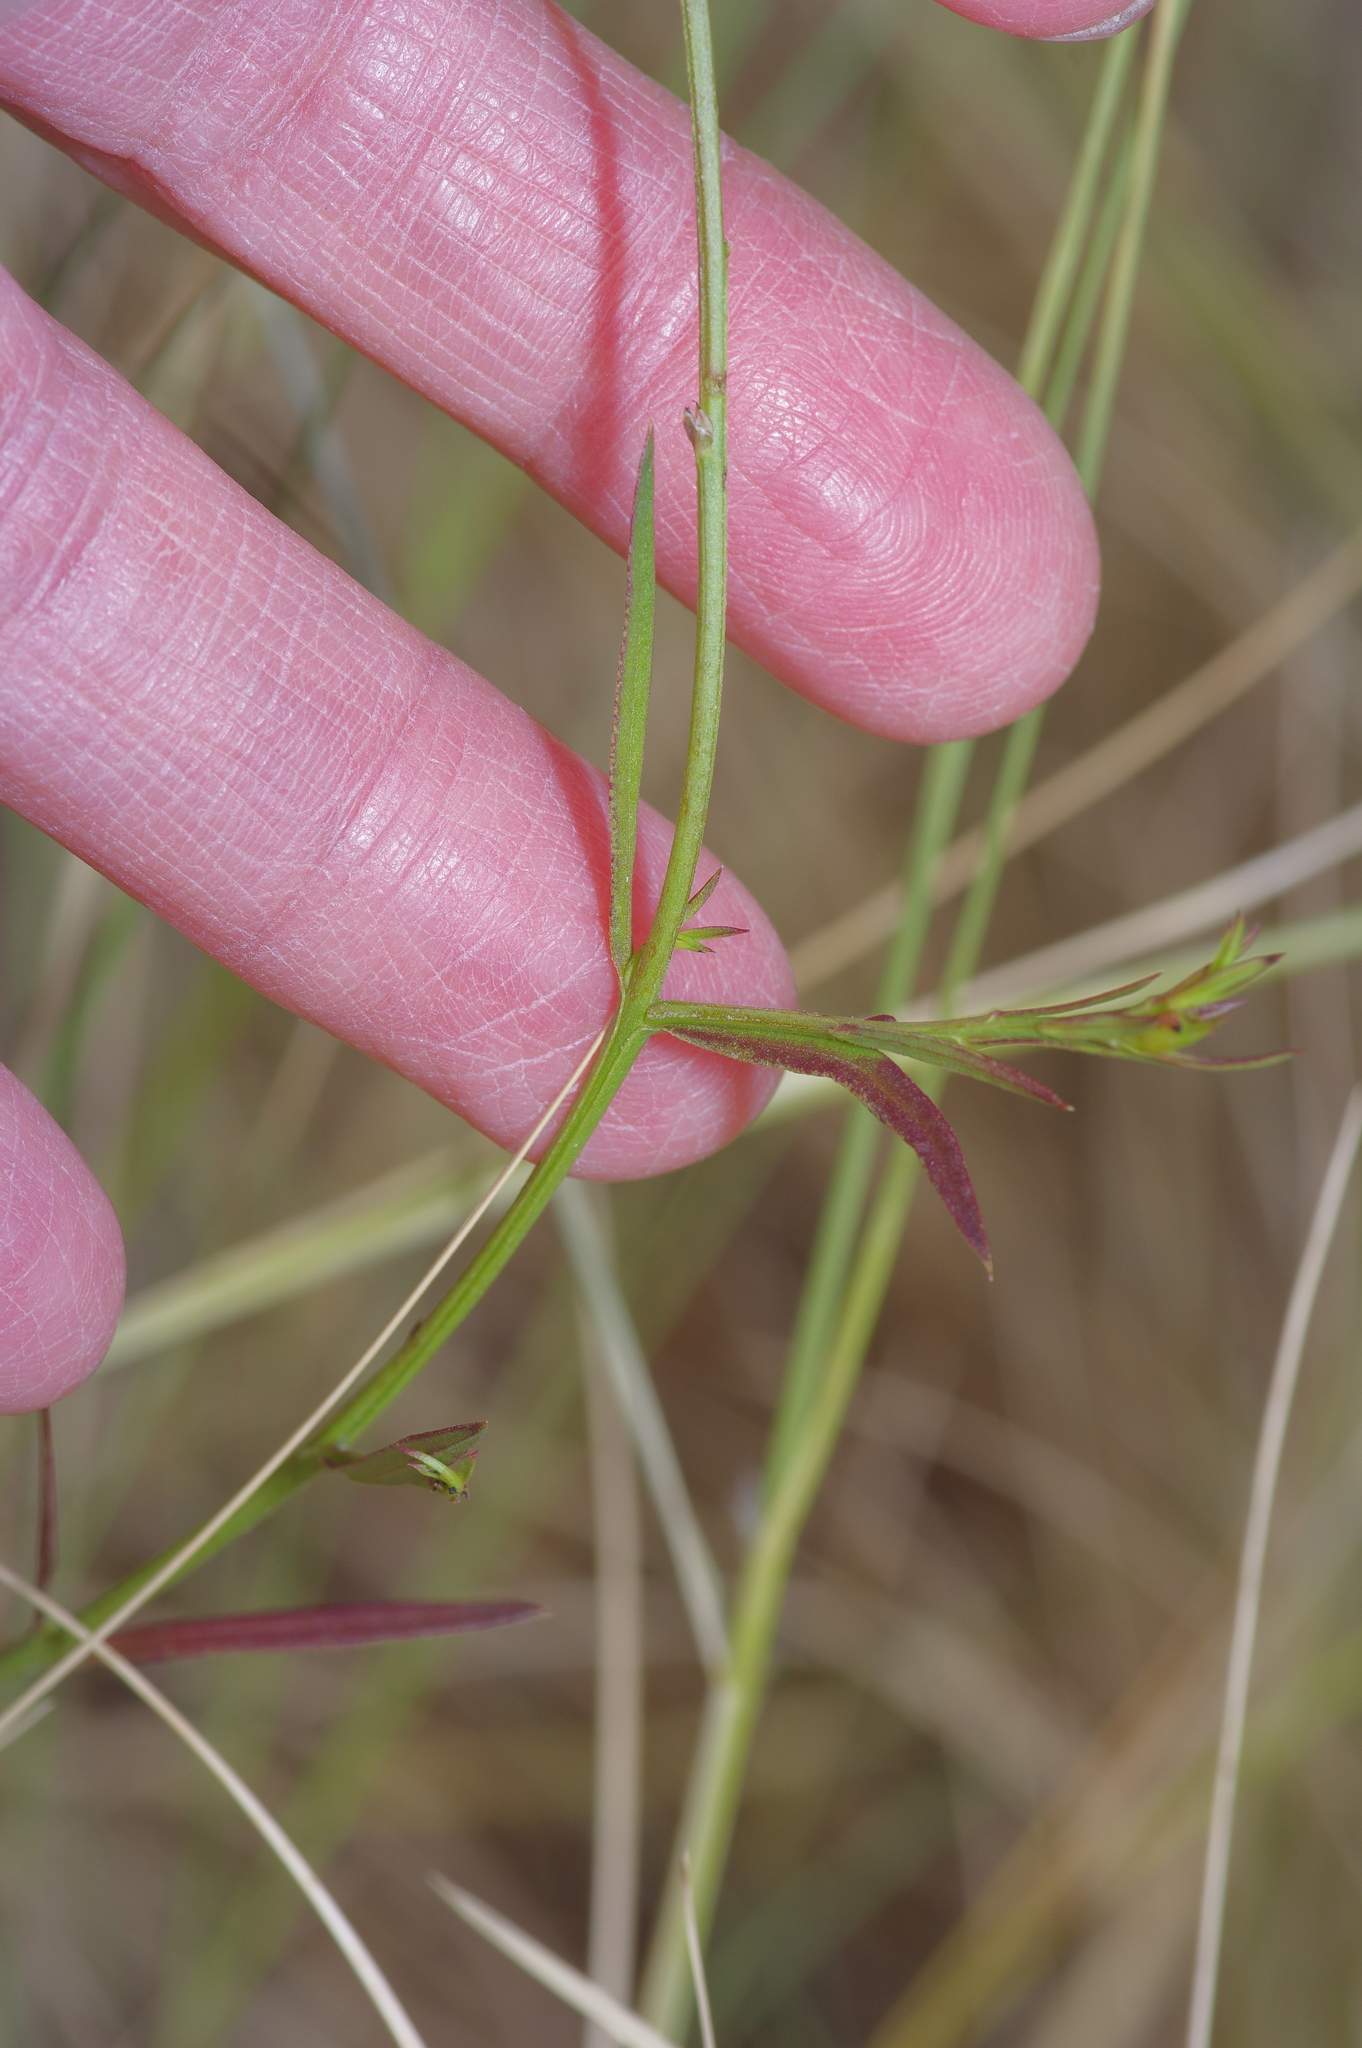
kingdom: Plantae
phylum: Tracheophyta
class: Magnoliopsida
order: Lamiales
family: Orobanchaceae
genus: Agalinis
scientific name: Agalinis heterophylla
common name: Prairie agalinis
